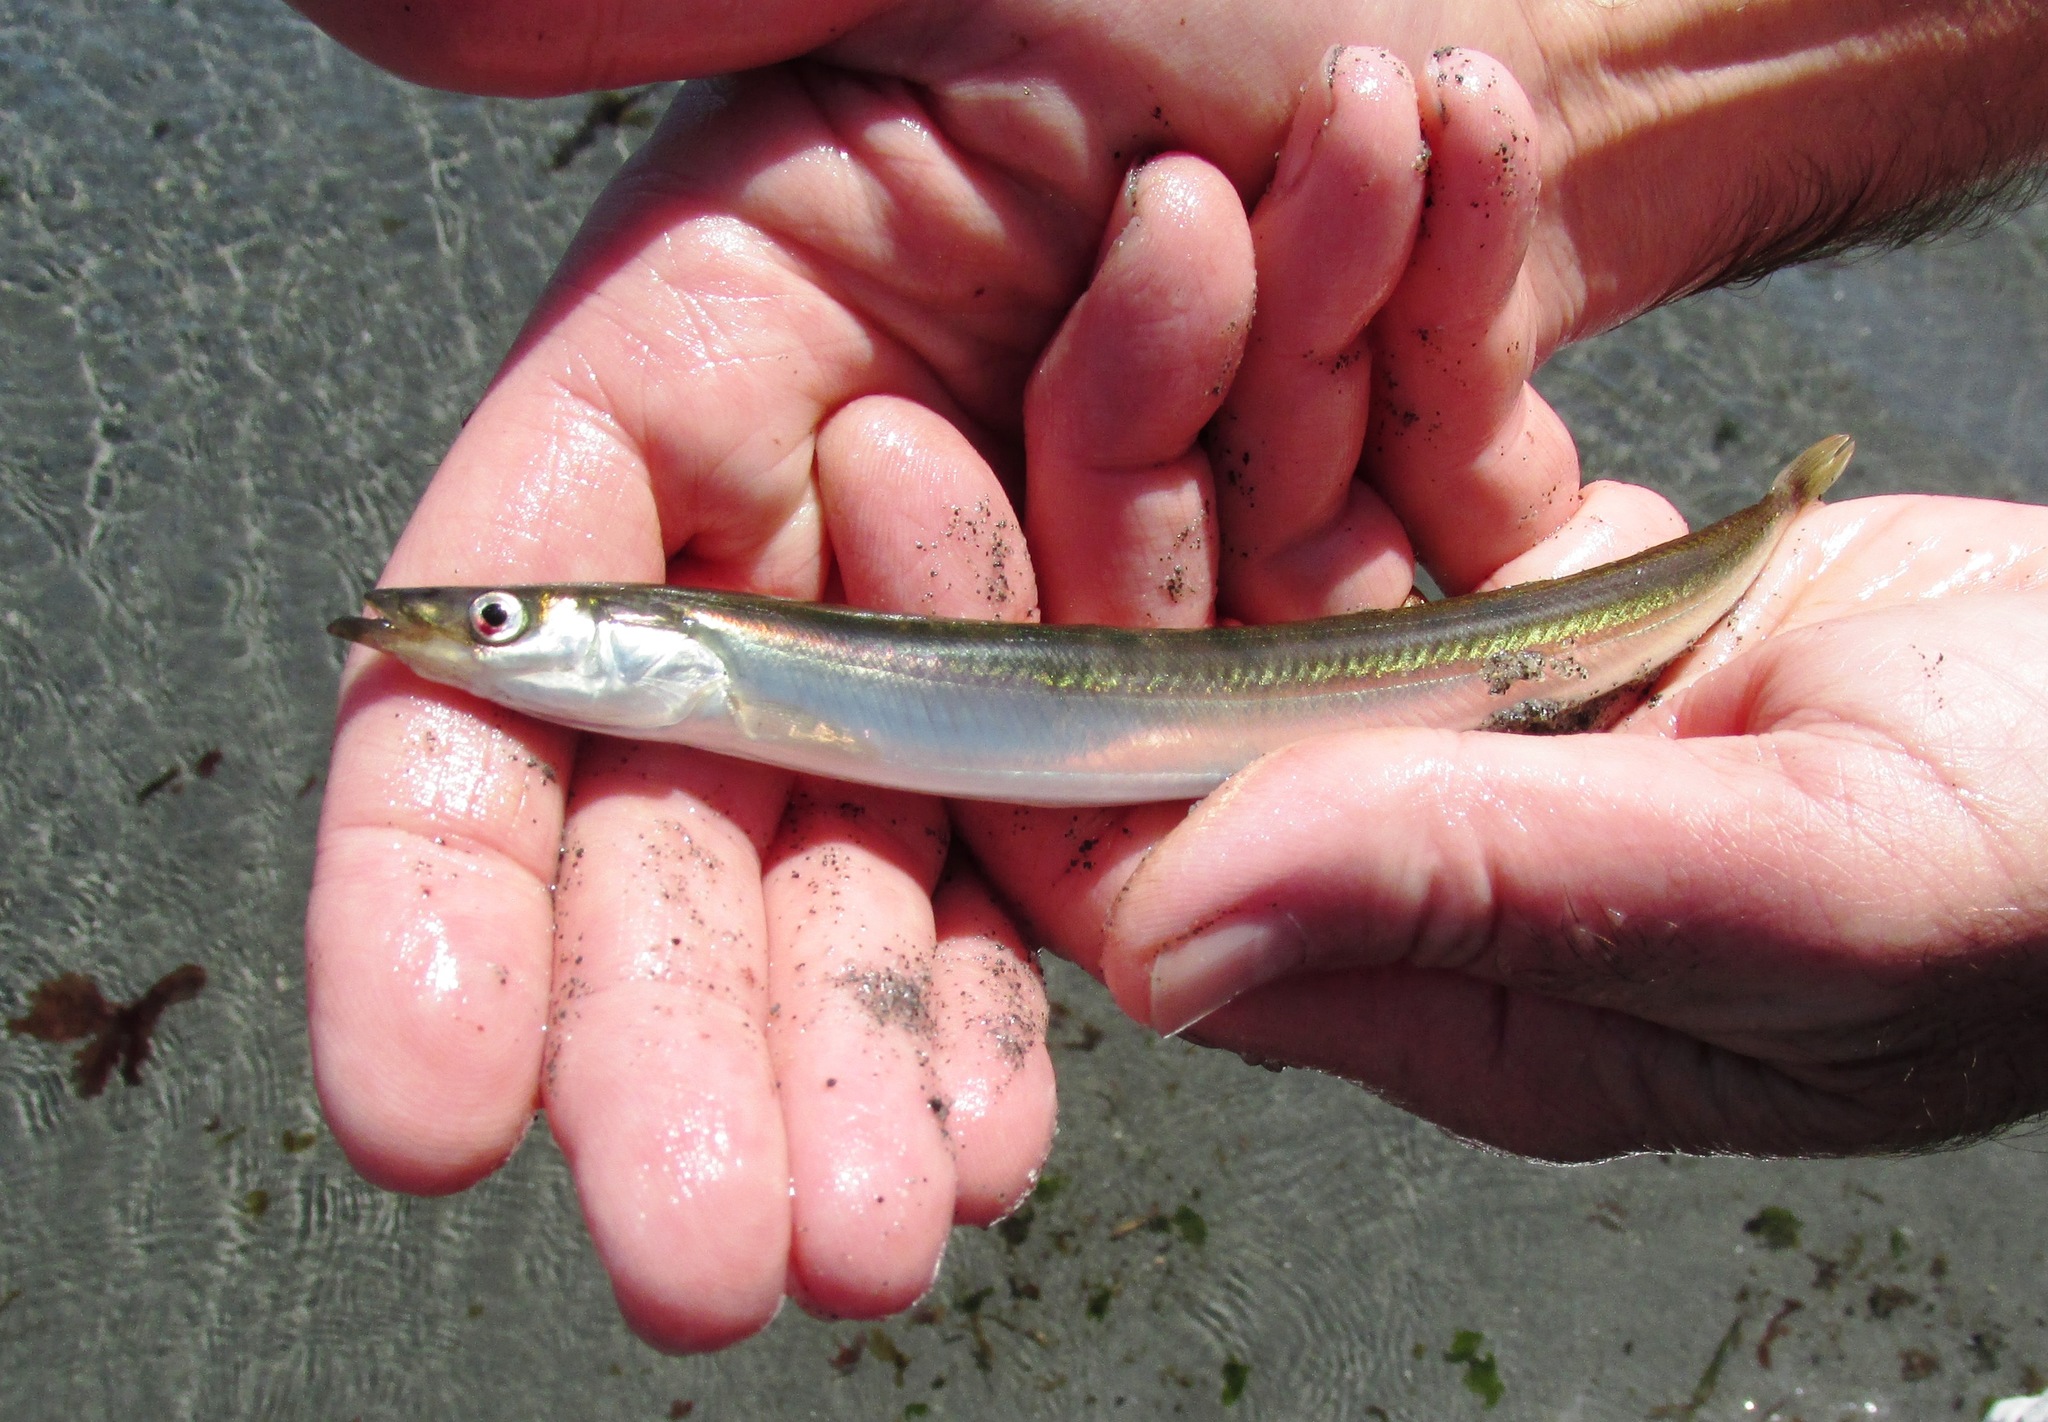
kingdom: Animalia
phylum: Chordata
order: Perciformes
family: Ammodytidae
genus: Ammodytes
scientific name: Ammodytes personatus
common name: Japanese sand lance
